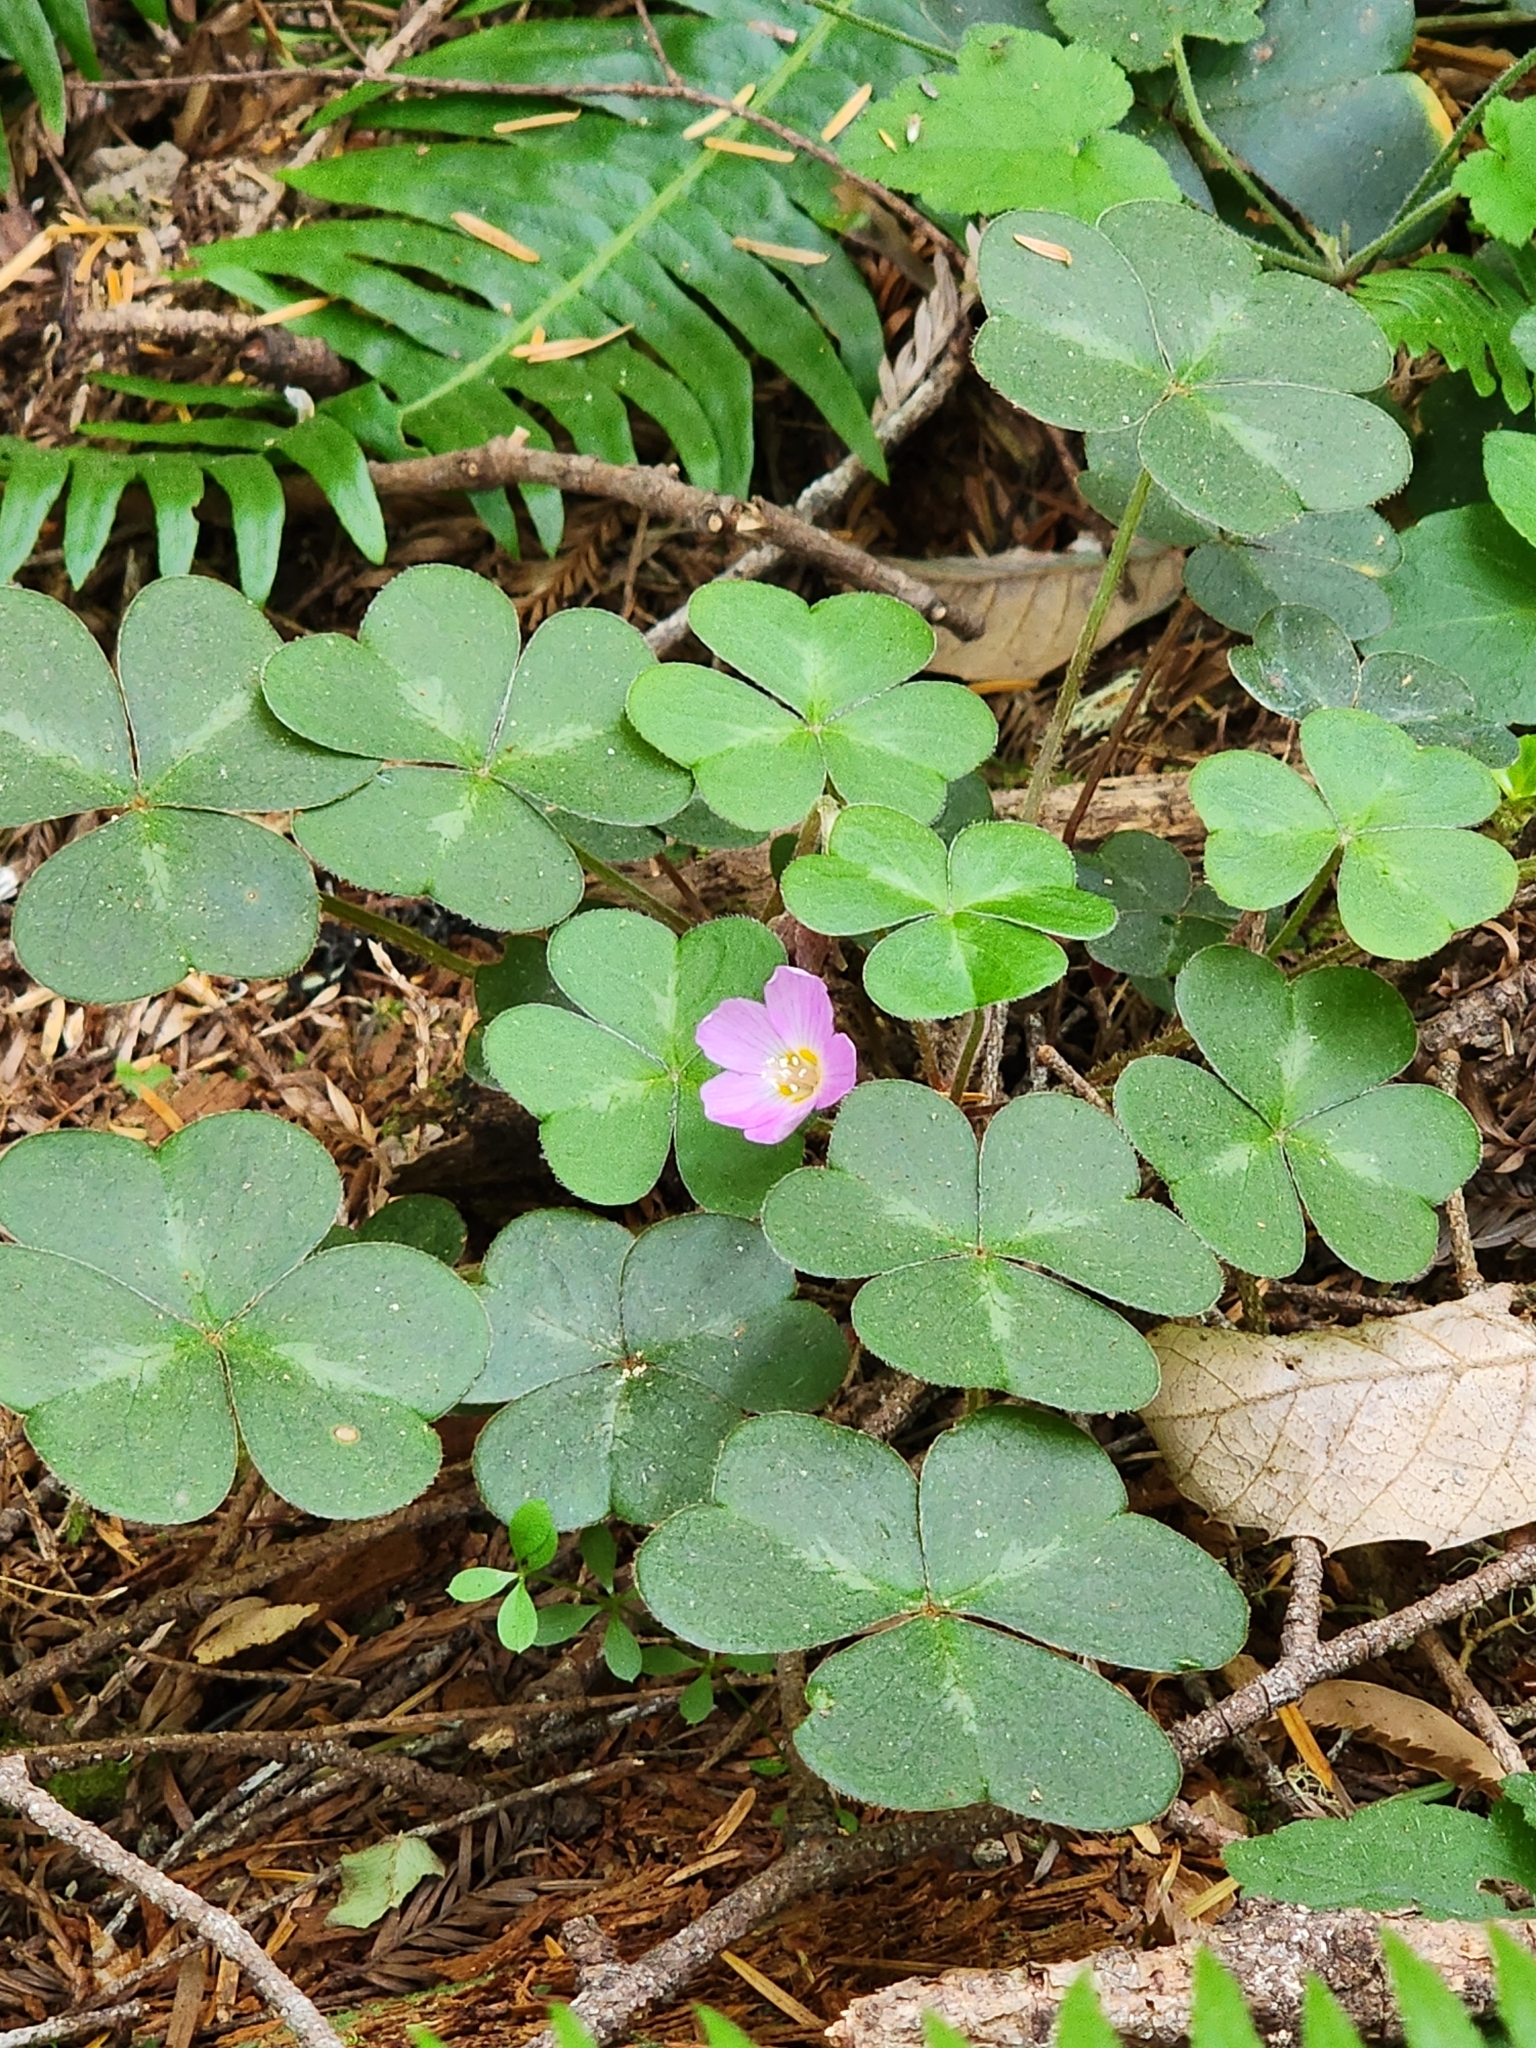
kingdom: Plantae
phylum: Tracheophyta
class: Magnoliopsida
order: Oxalidales
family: Oxalidaceae
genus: Oxalis
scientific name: Oxalis oregana
